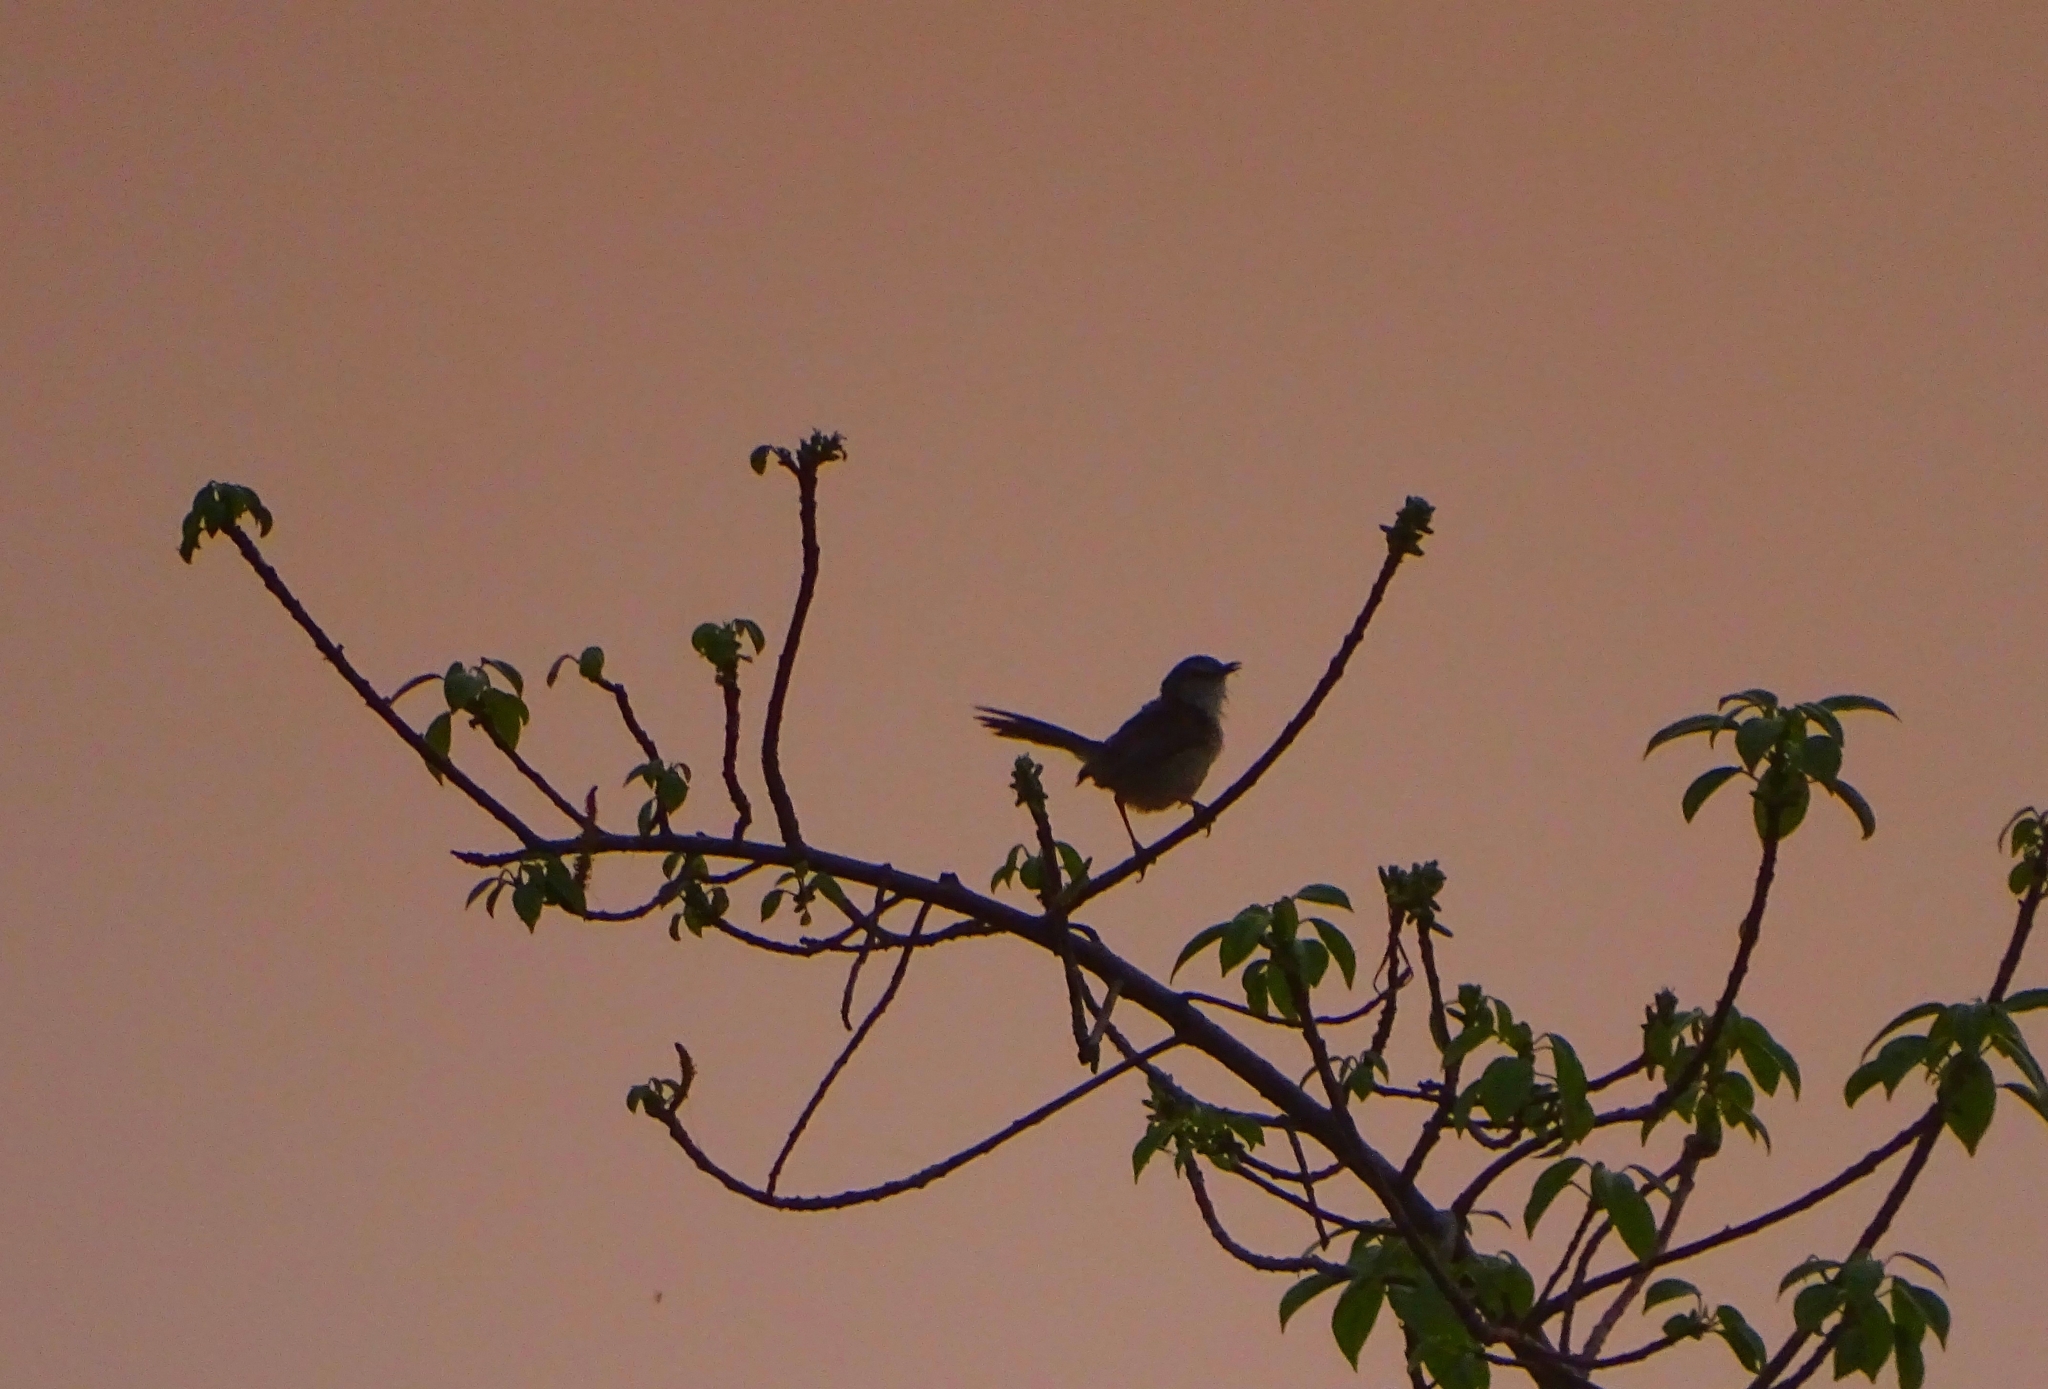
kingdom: Animalia
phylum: Chordata
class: Aves
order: Passeriformes
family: Cisticolidae
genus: Prinia
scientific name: Prinia inornata
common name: Plain prinia
